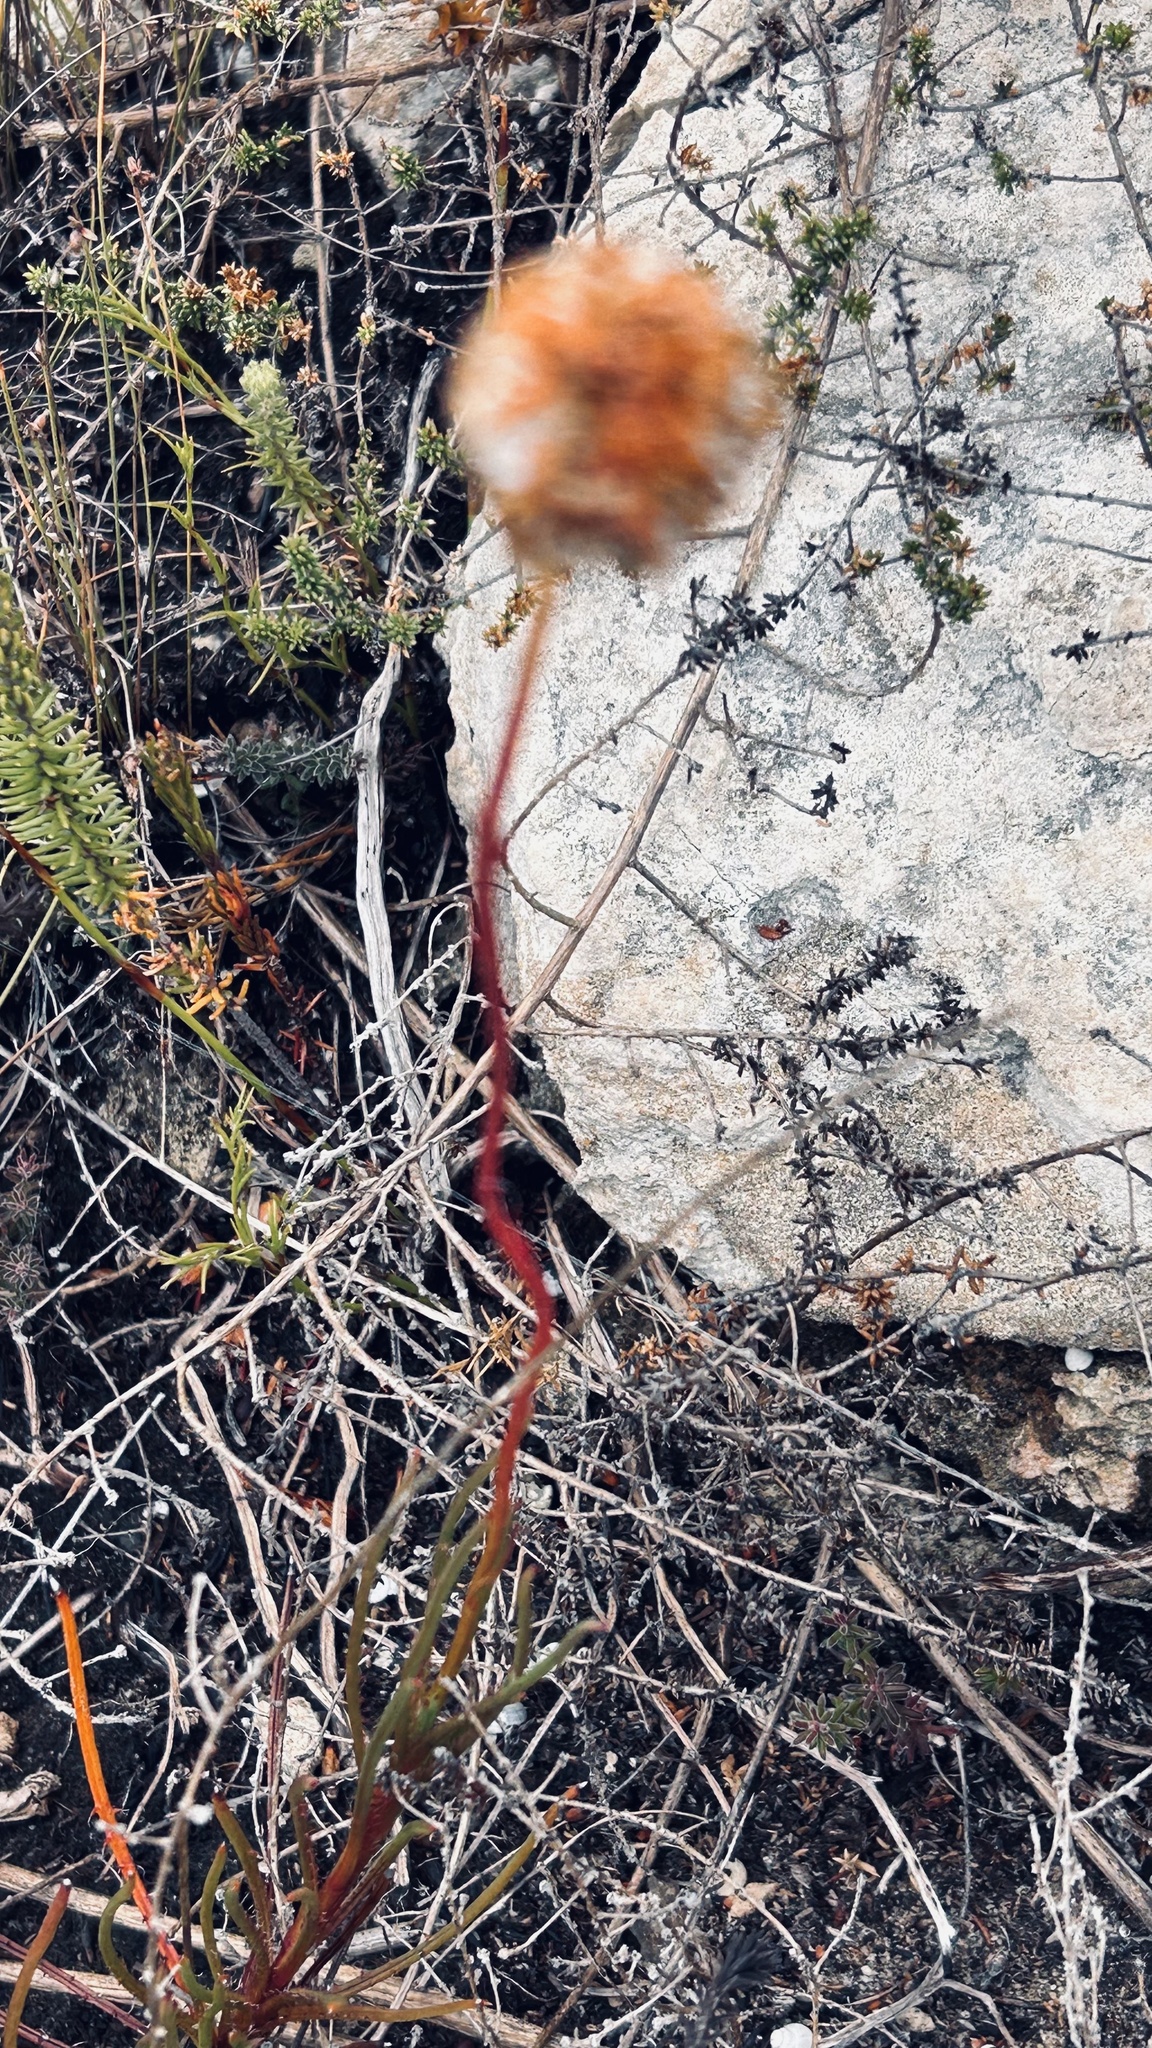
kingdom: Plantae
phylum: Tracheophyta
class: Magnoliopsida
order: Asterales
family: Asteraceae
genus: Ursinia
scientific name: Ursinia chrysanthemoides
